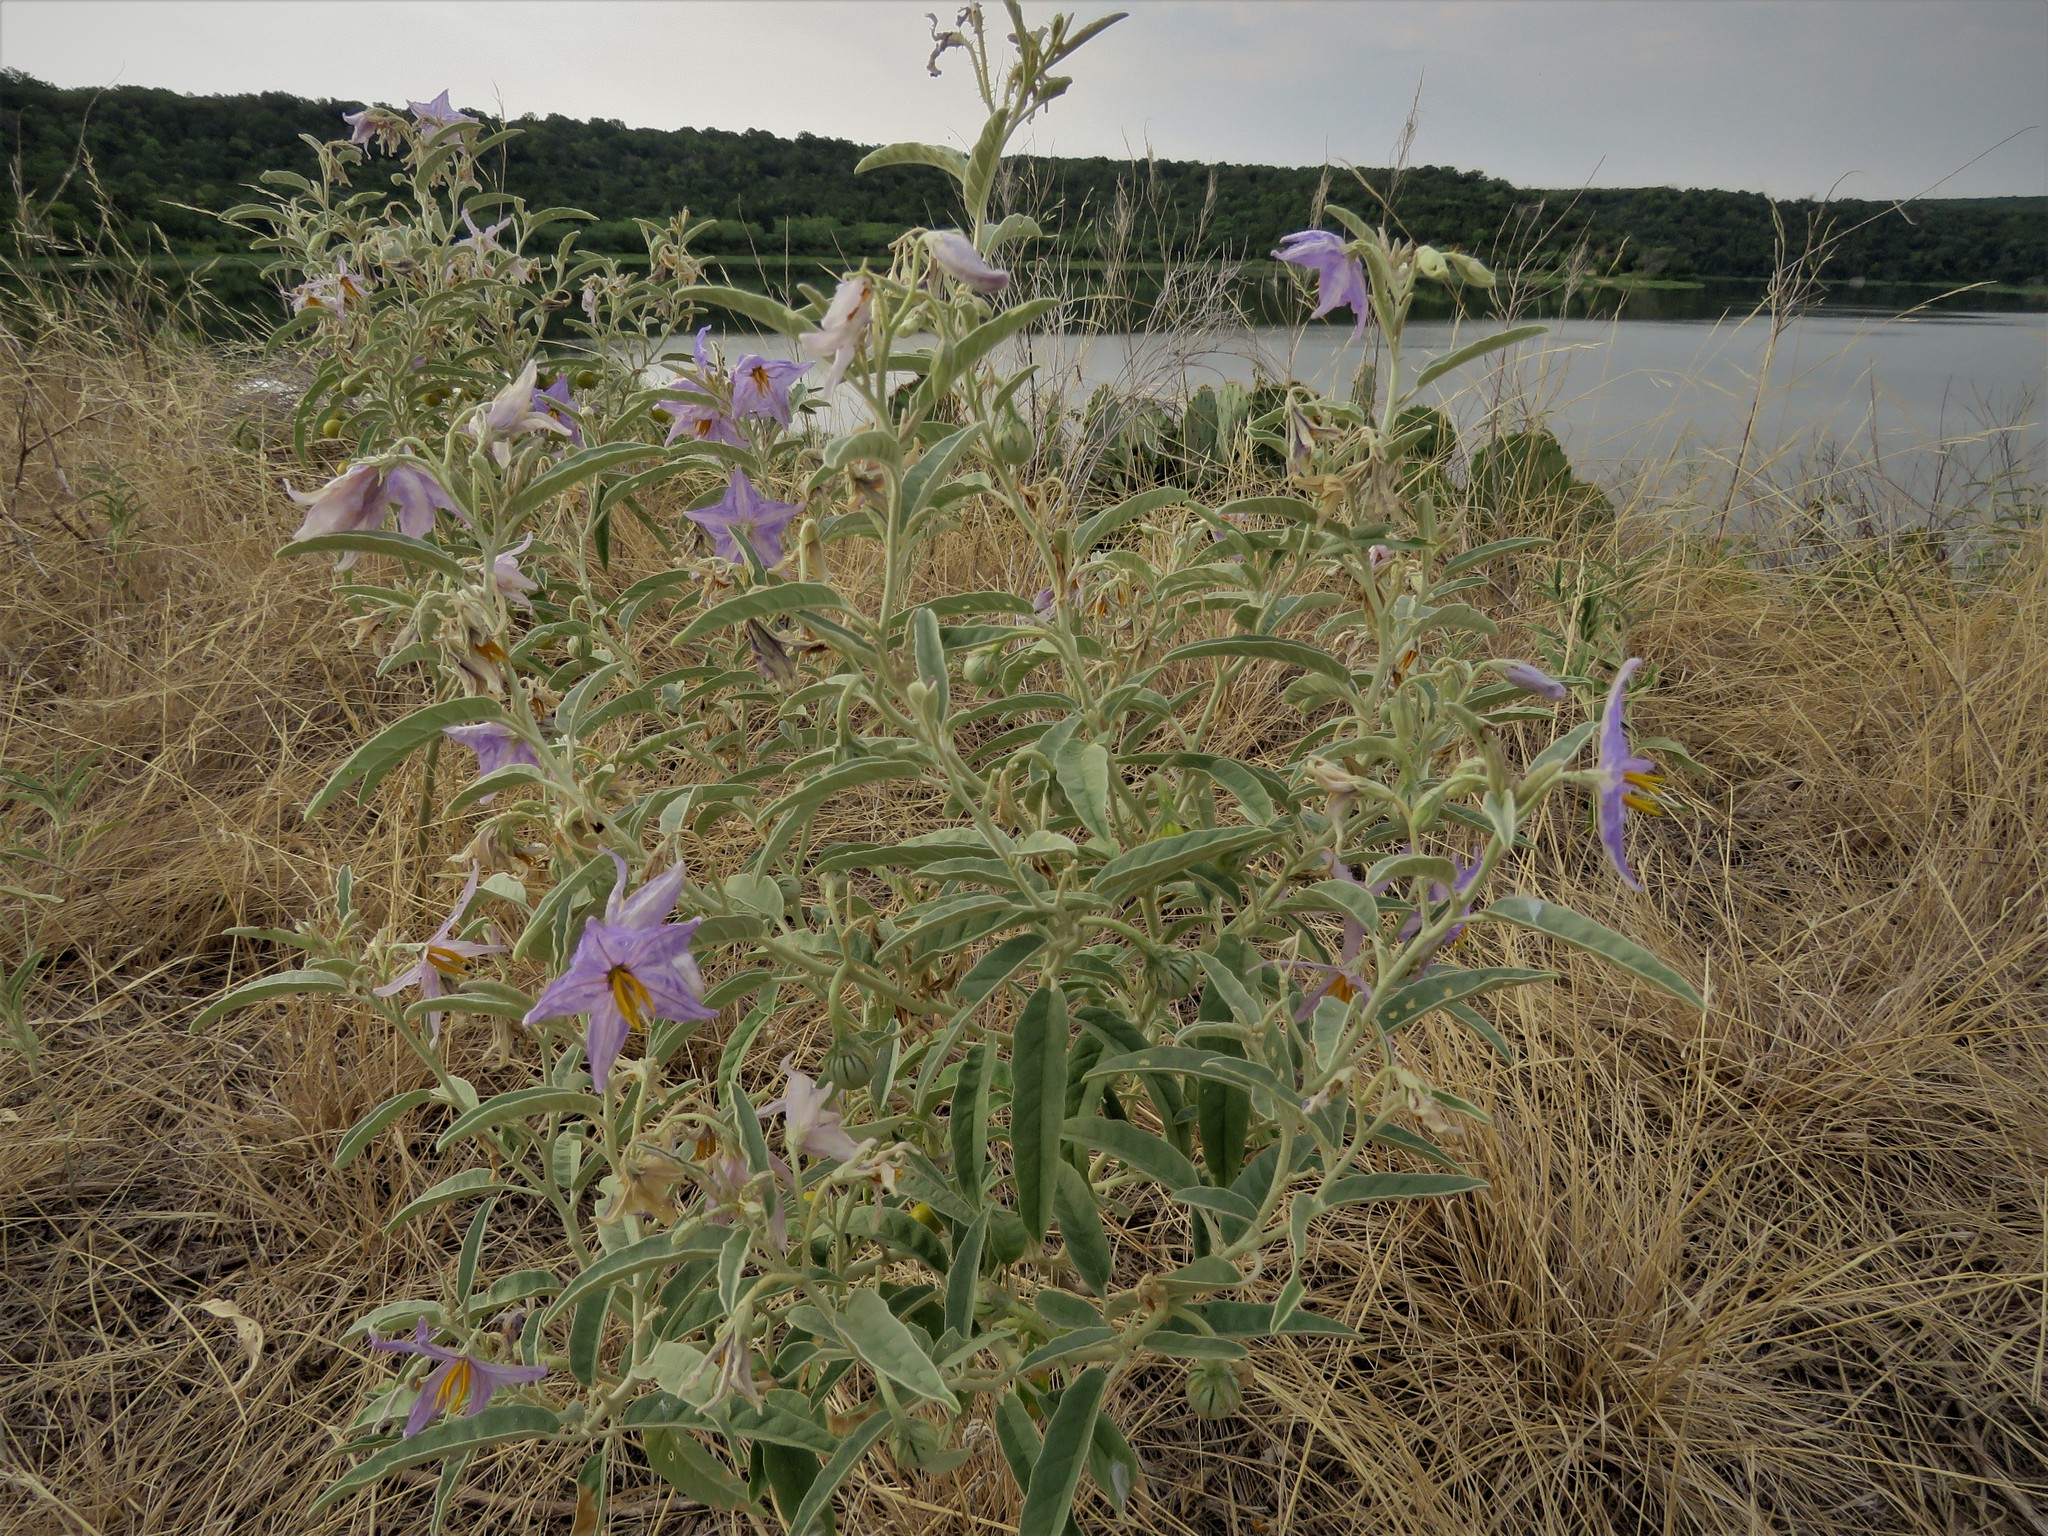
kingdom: Plantae
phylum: Tracheophyta
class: Magnoliopsida
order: Solanales
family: Solanaceae
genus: Solanum
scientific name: Solanum elaeagnifolium
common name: Silverleaf nightshade
